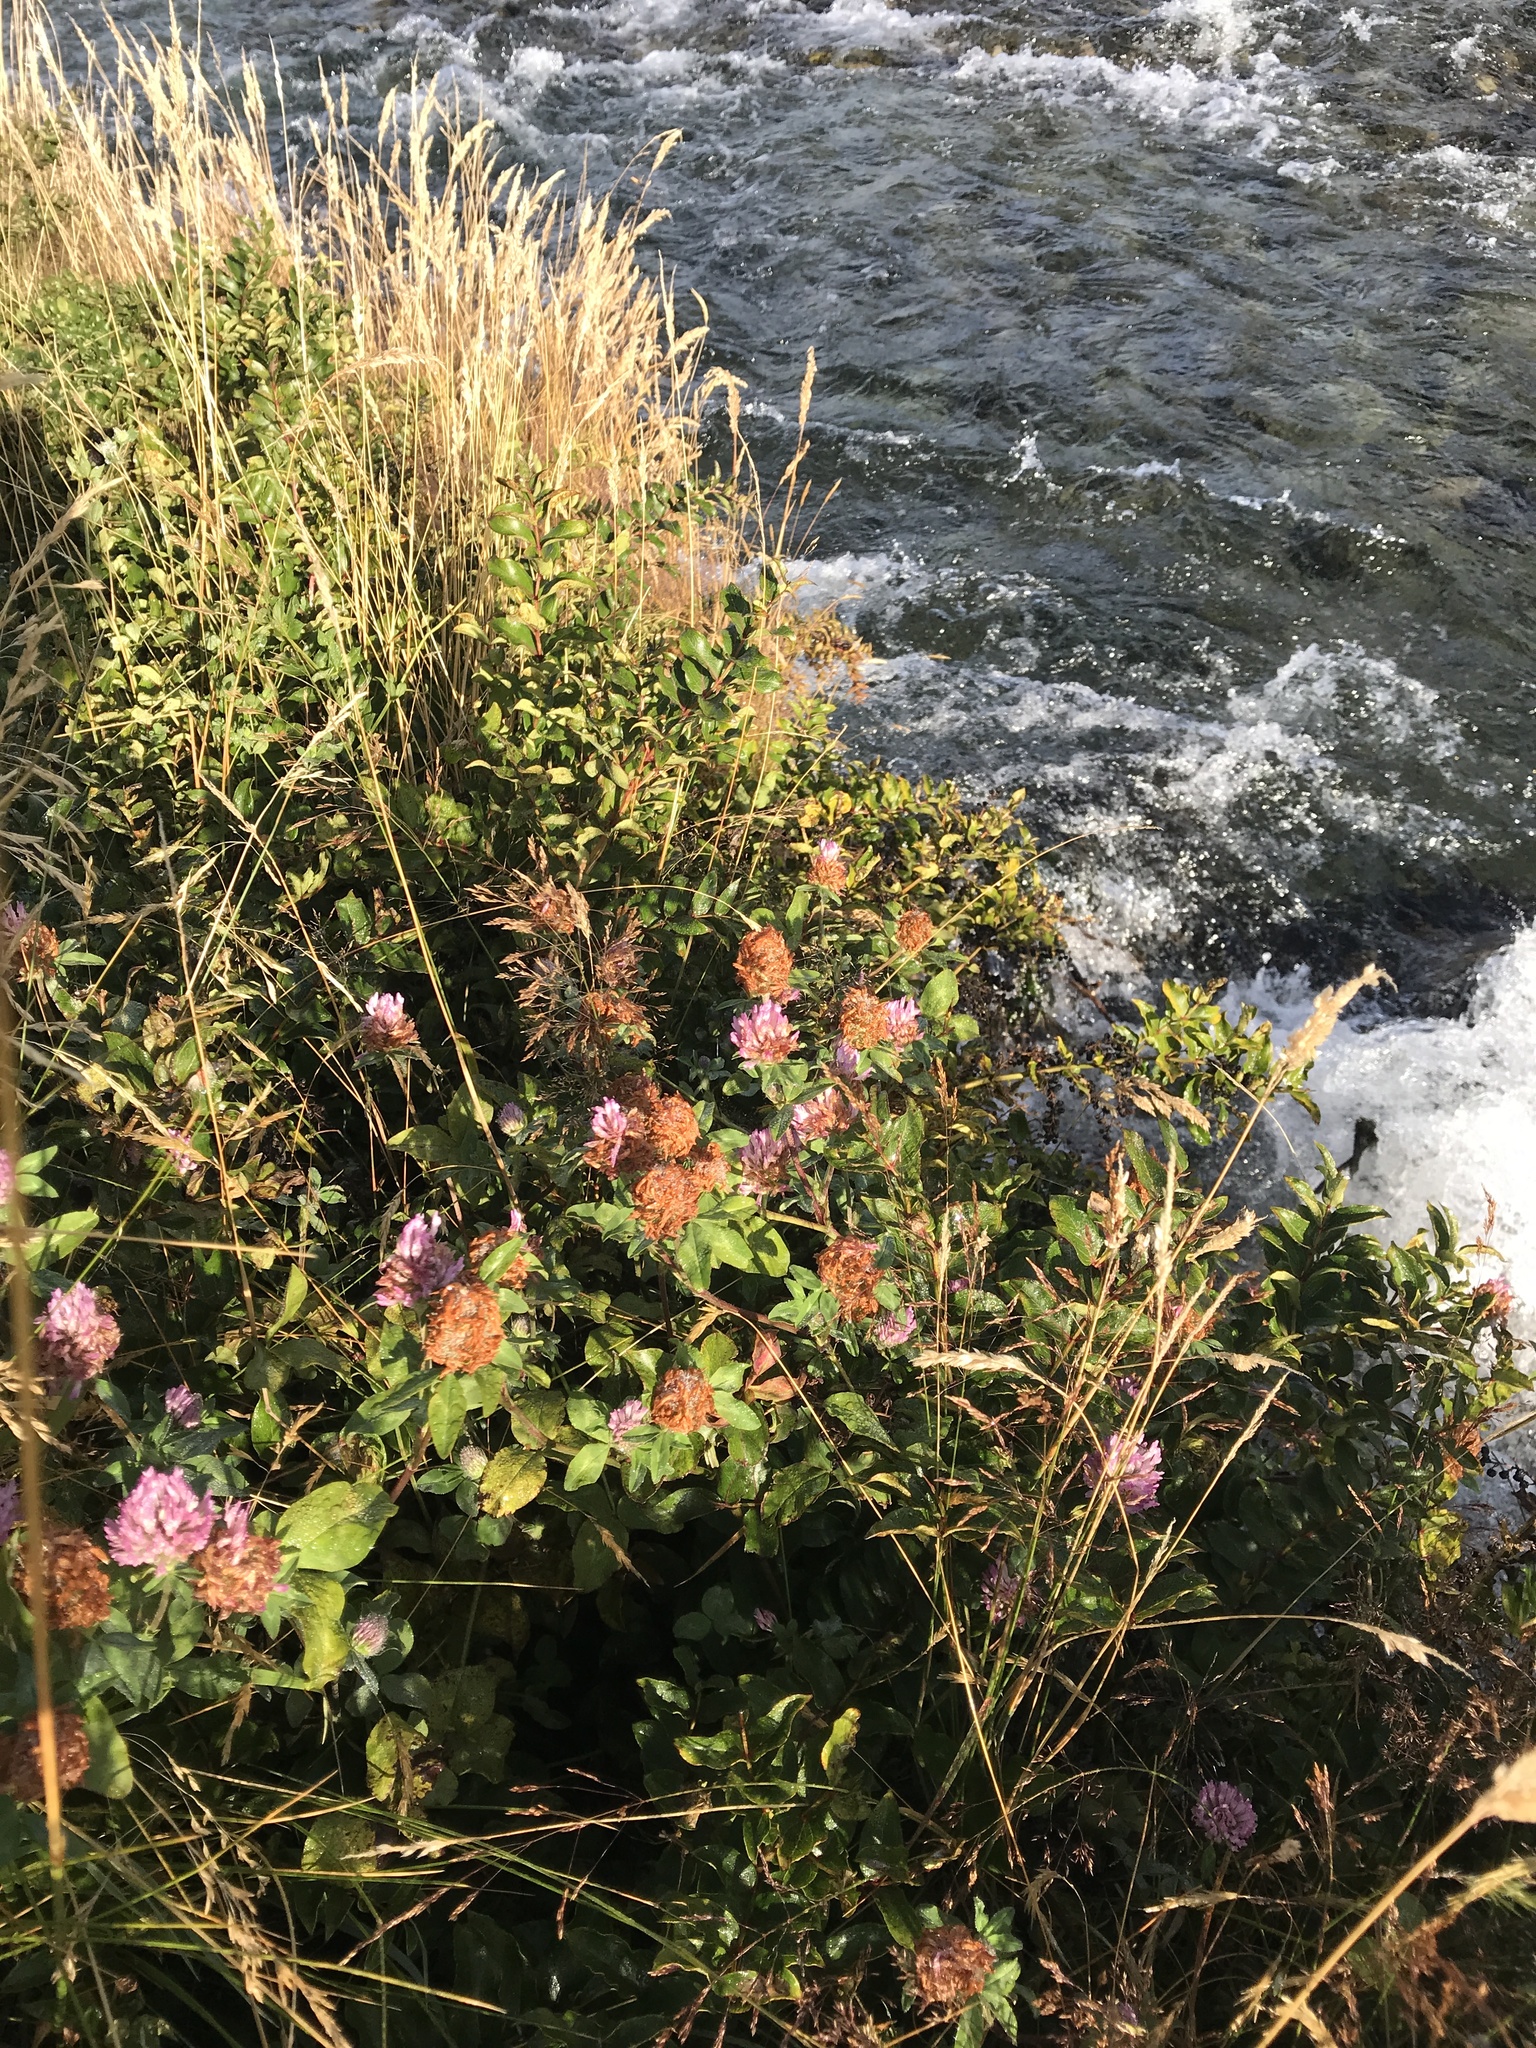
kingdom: Plantae
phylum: Tracheophyta
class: Magnoliopsida
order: Fabales
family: Fabaceae
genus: Trifolium
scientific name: Trifolium pratense
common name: Red clover
